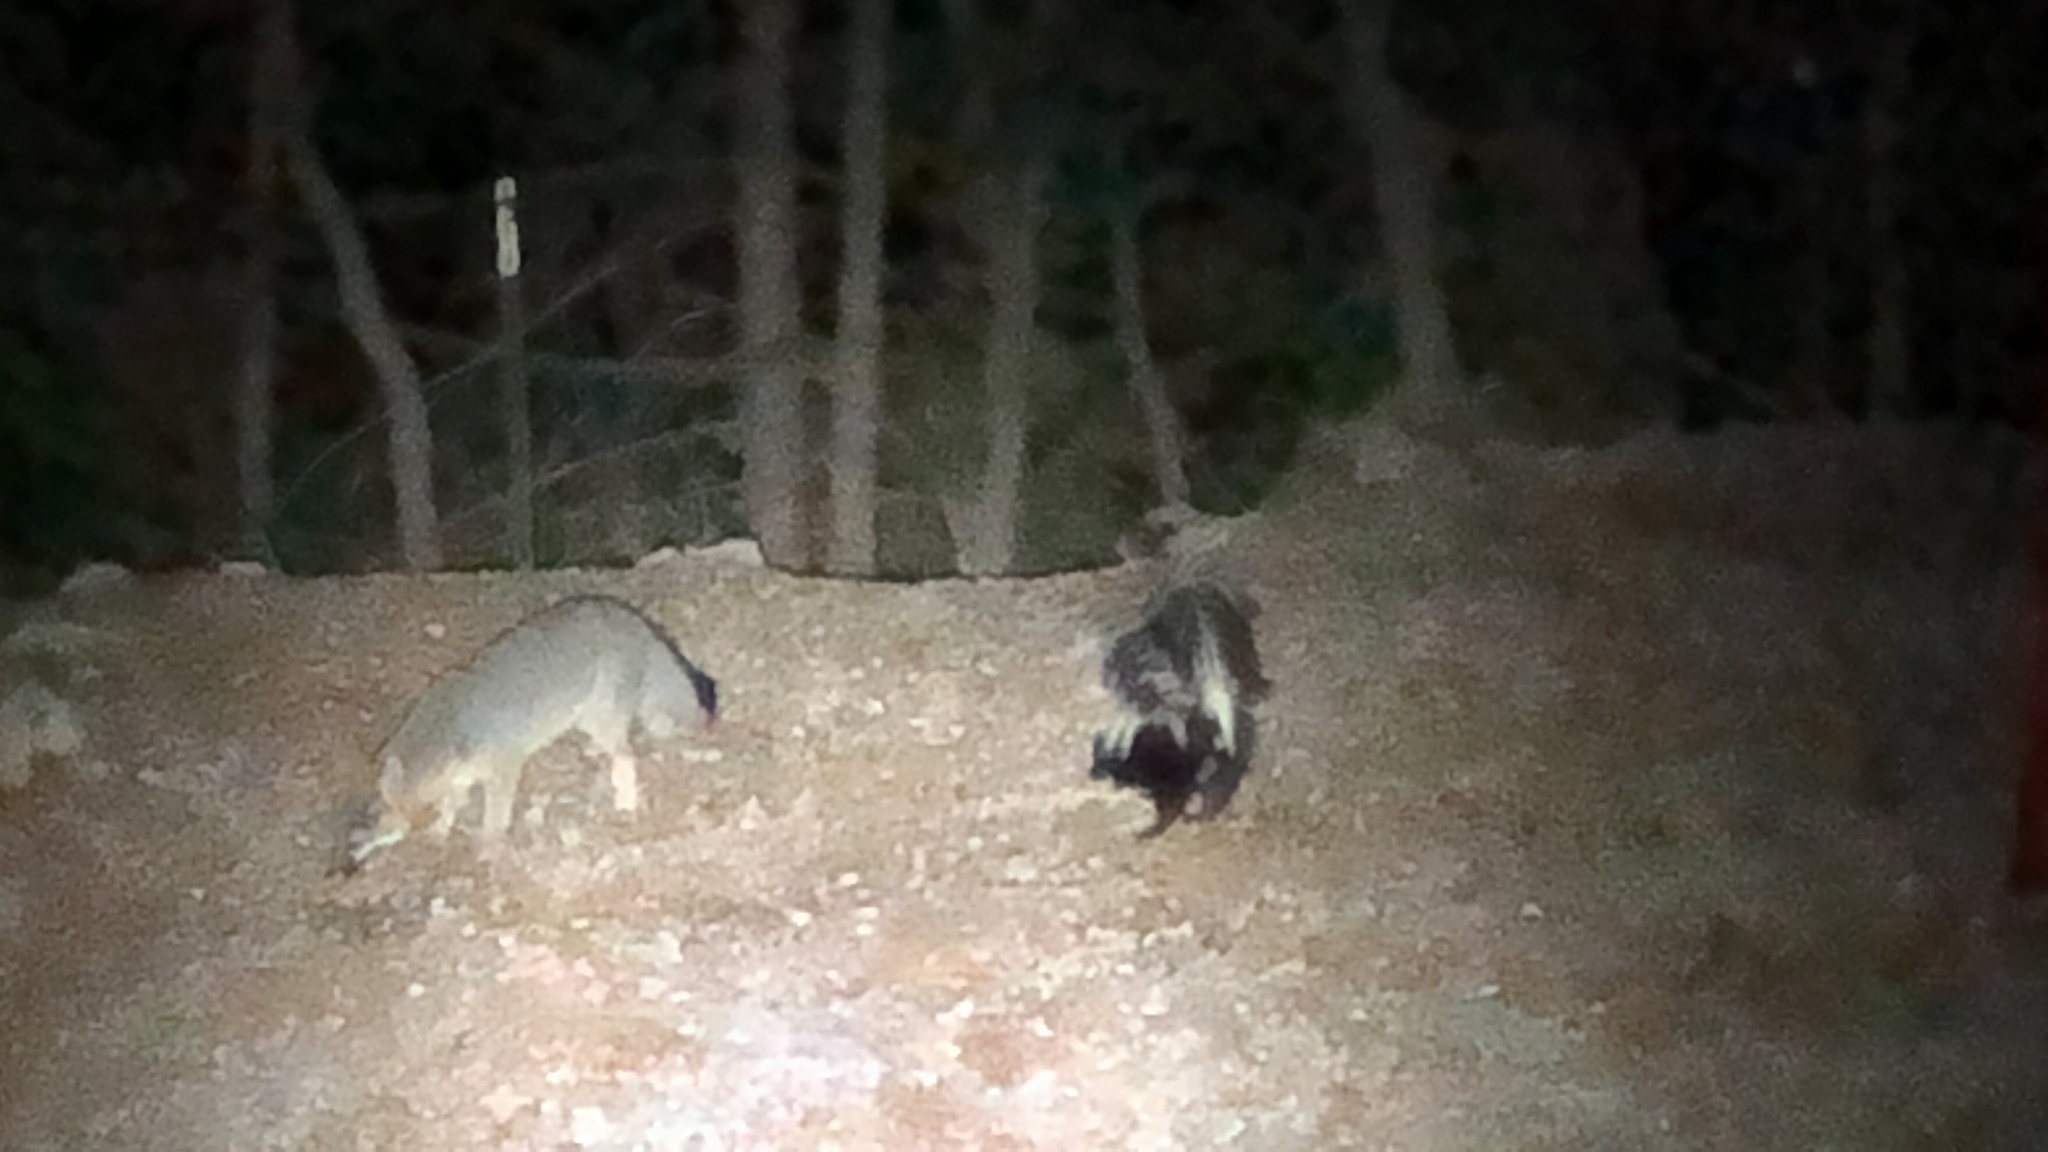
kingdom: Animalia
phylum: Chordata
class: Mammalia
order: Carnivora
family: Canidae
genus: Urocyon
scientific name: Urocyon cinereoargenteus
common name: Gray fox
